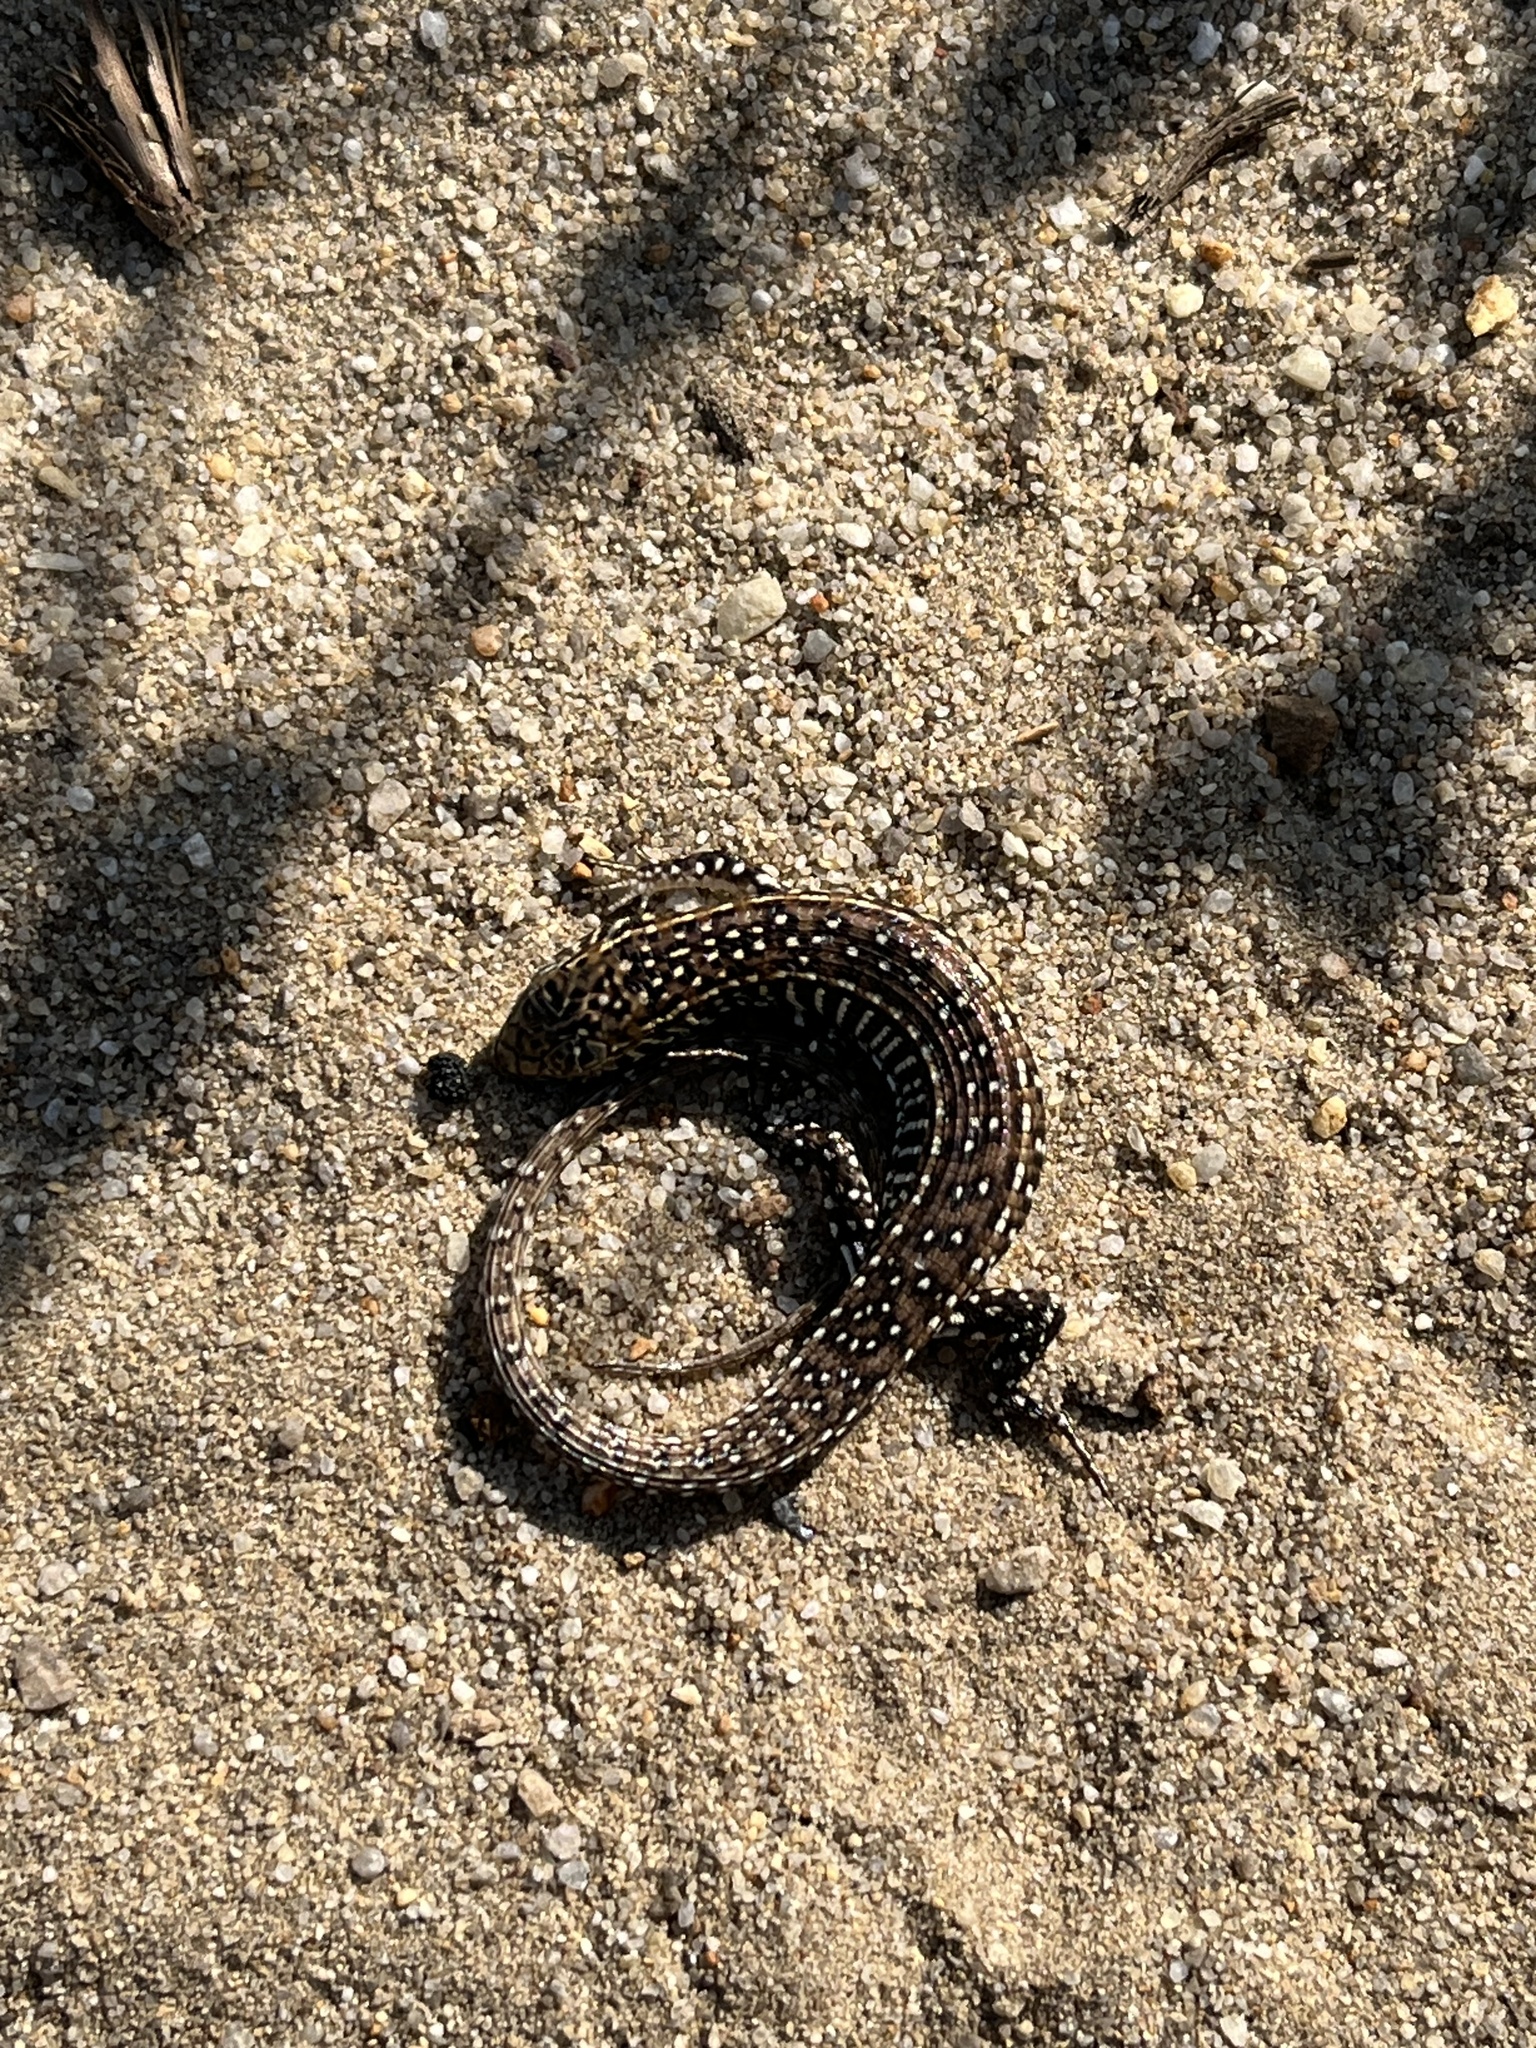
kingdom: Animalia
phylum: Chordata
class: Squamata
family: Gerrhosauridae
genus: Gerrhosaurus
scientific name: Gerrhosaurus flavigularis
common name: Yellow-throated plated lizard
